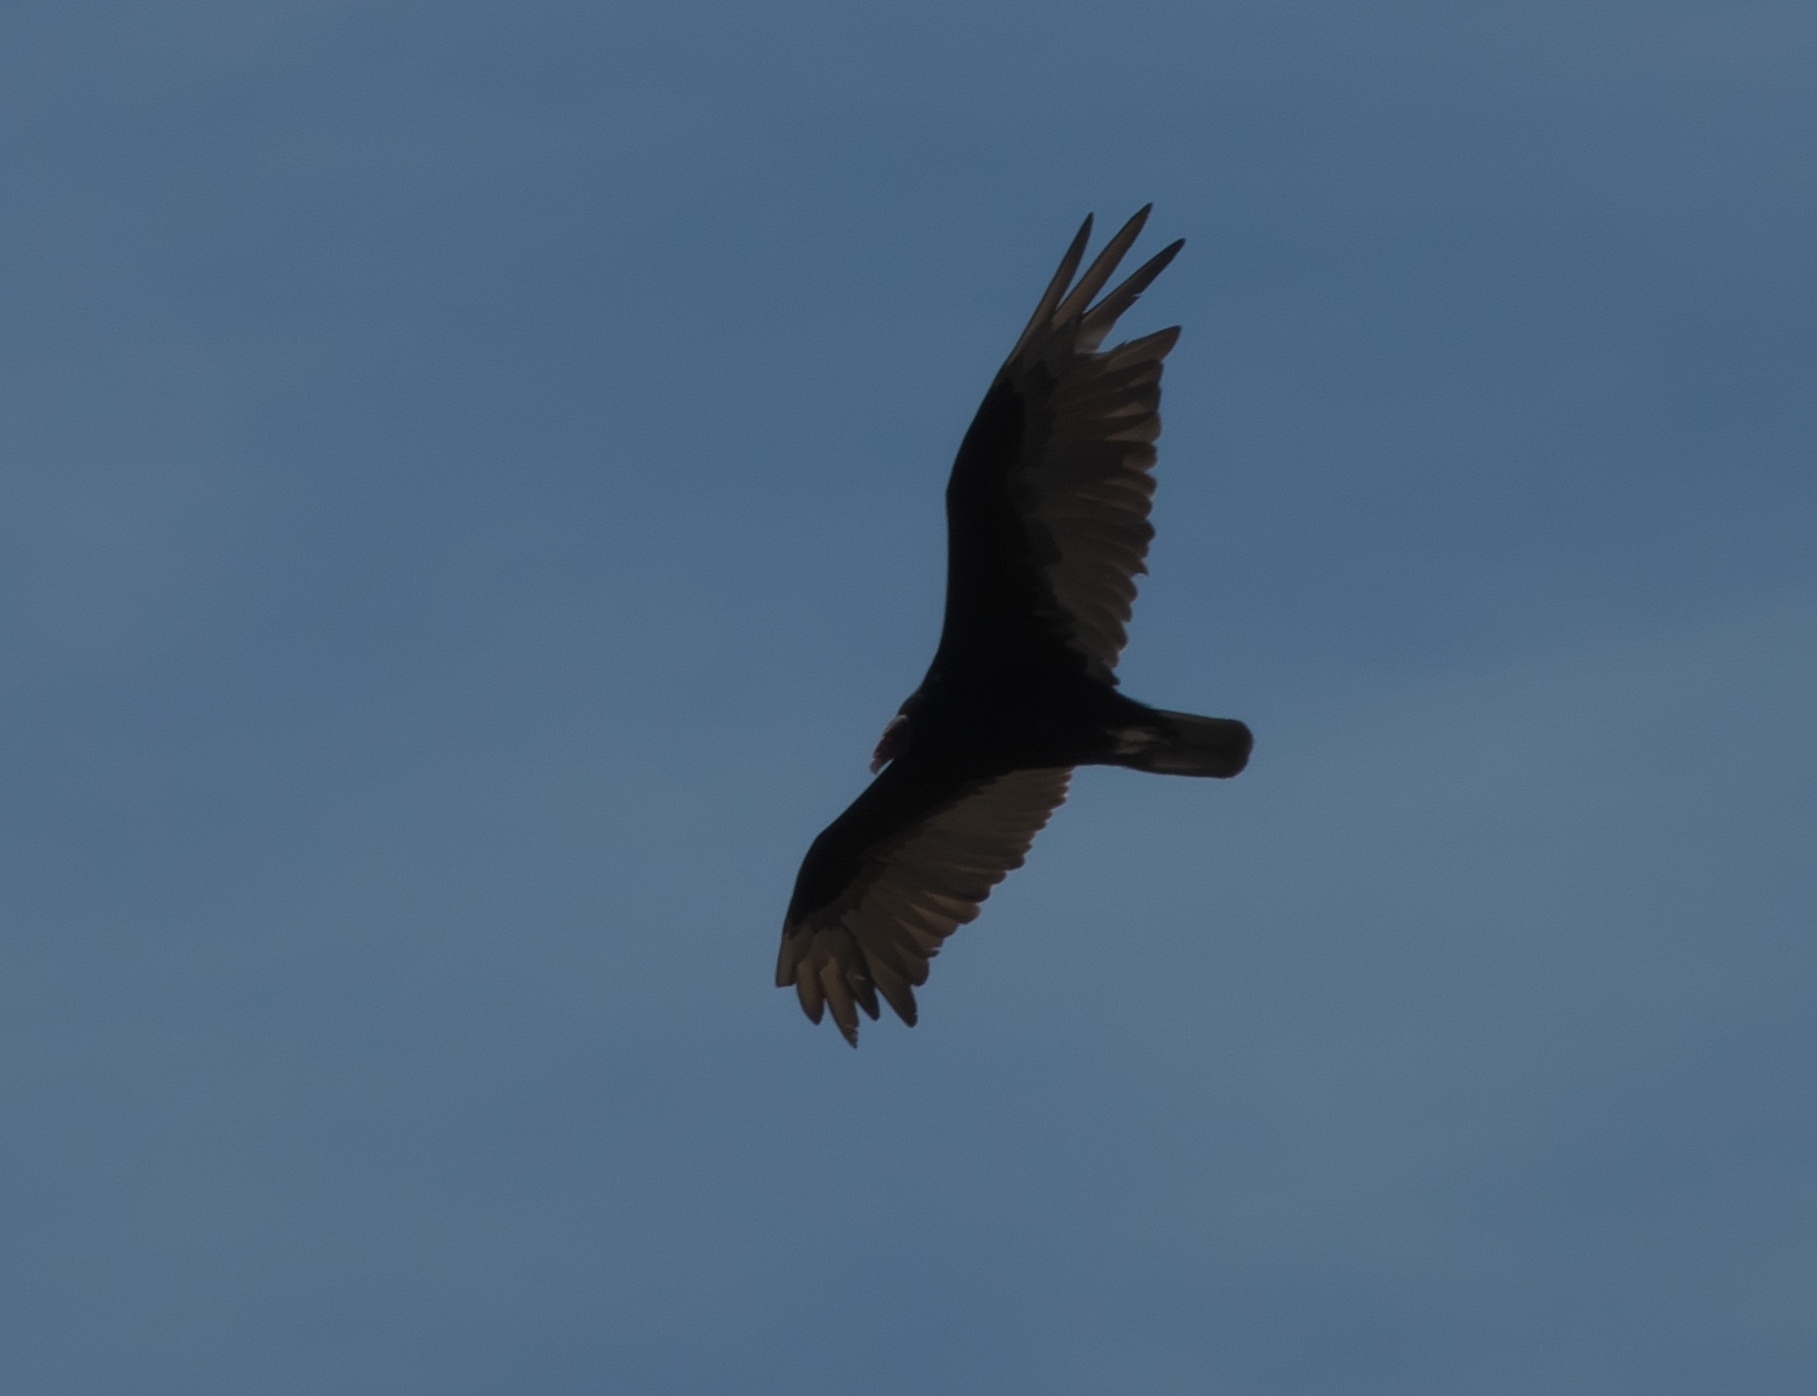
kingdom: Animalia
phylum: Chordata
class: Aves
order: Accipitriformes
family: Cathartidae
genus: Cathartes
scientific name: Cathartes aura
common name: Turkey vulture
